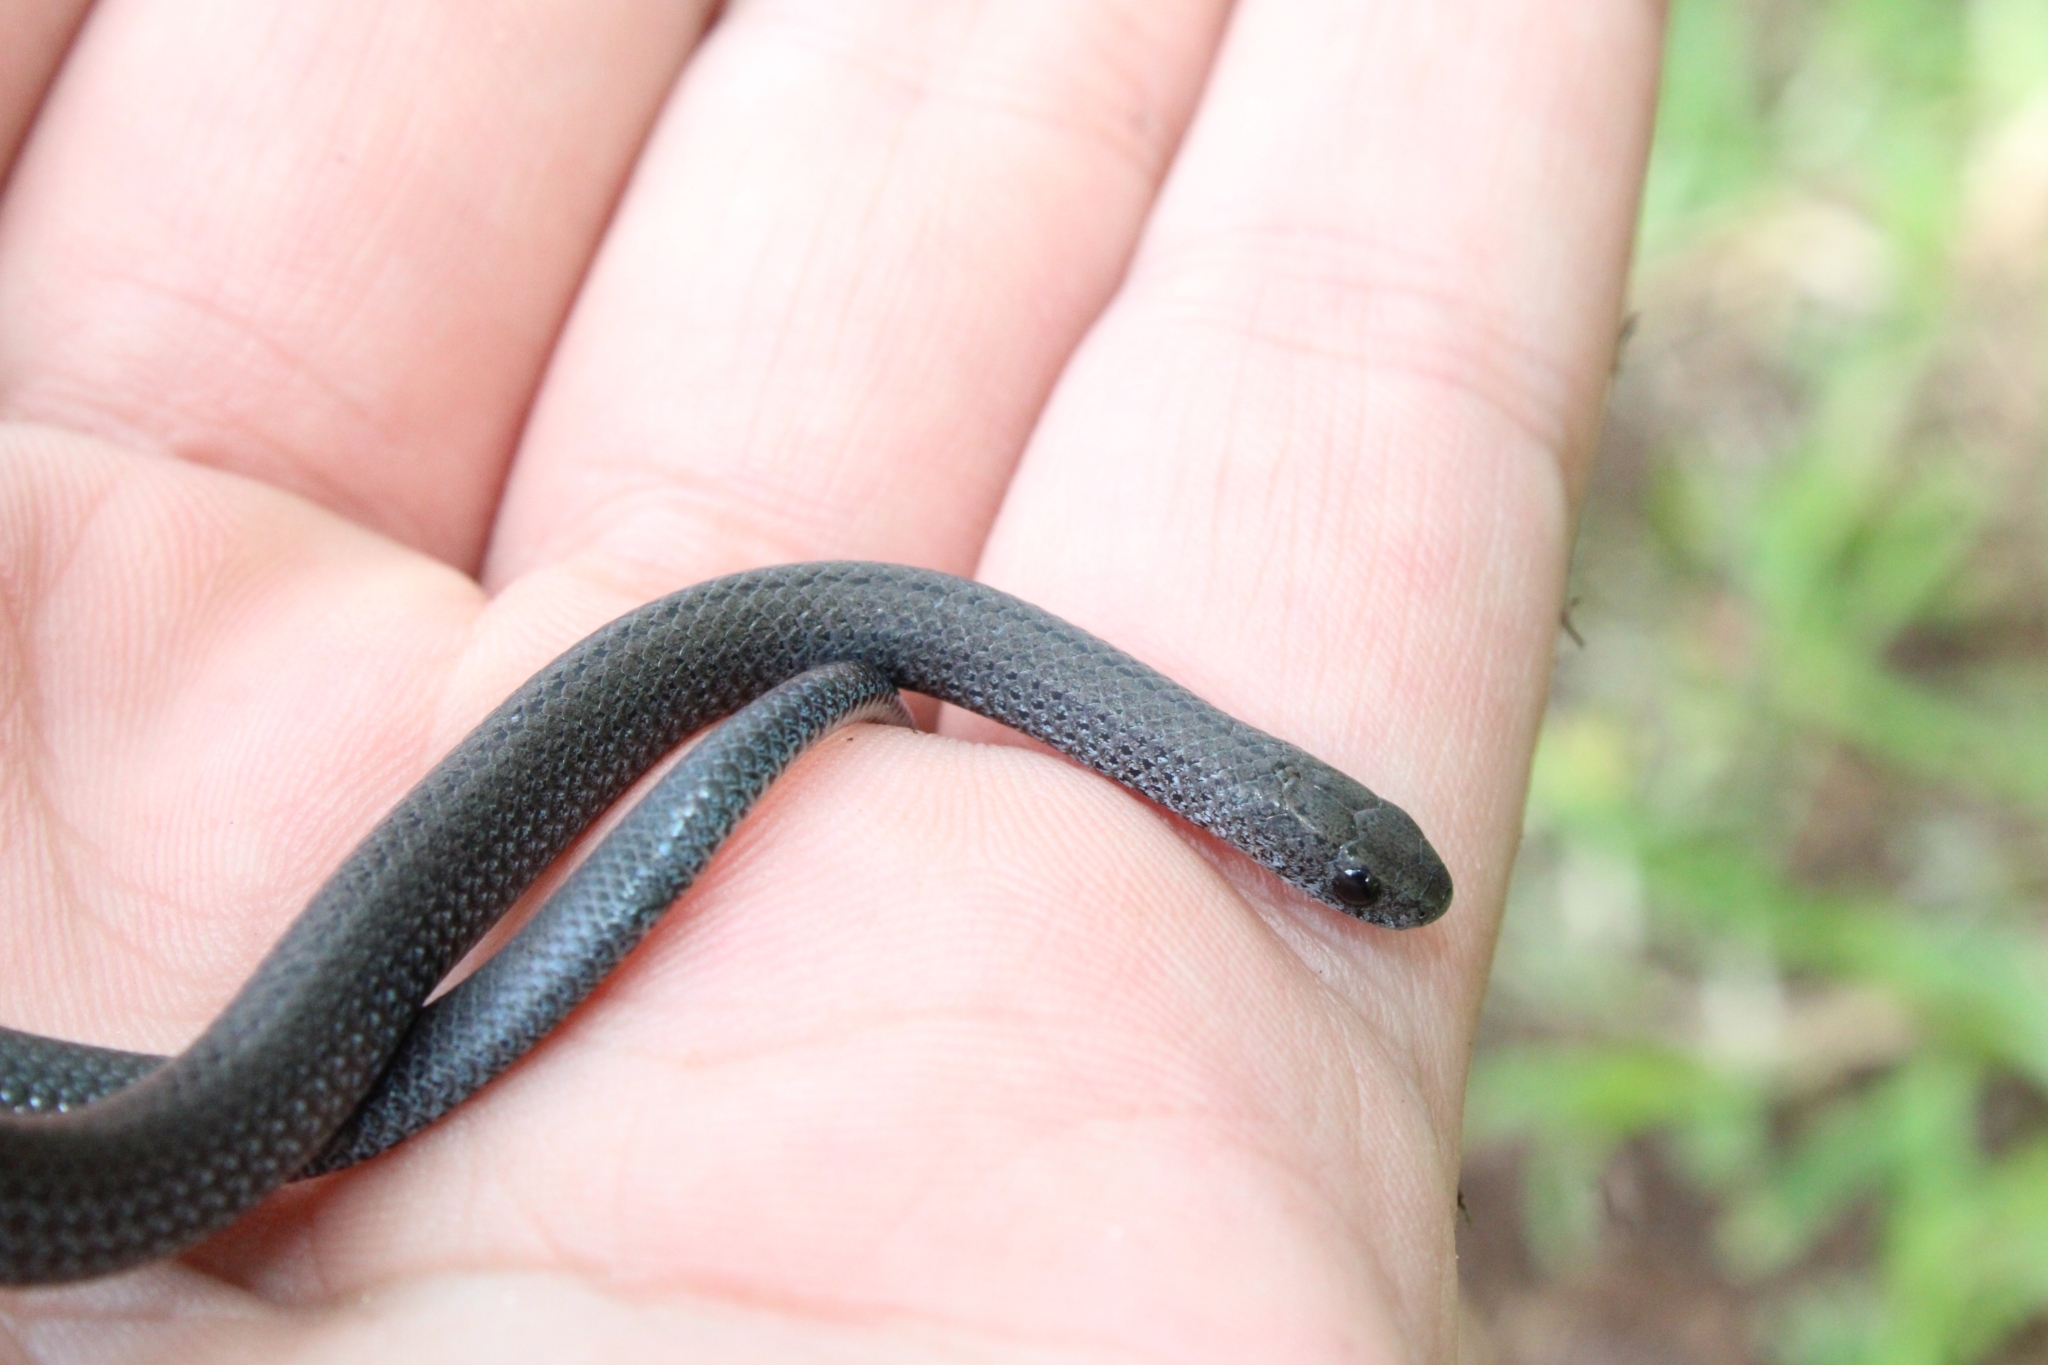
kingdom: Animalia
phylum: Chordata
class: Squamata
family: Pseudoxyrhophiidae
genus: Duberria
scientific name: Duberria rhodesiana
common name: Zimbabwean slug eater
